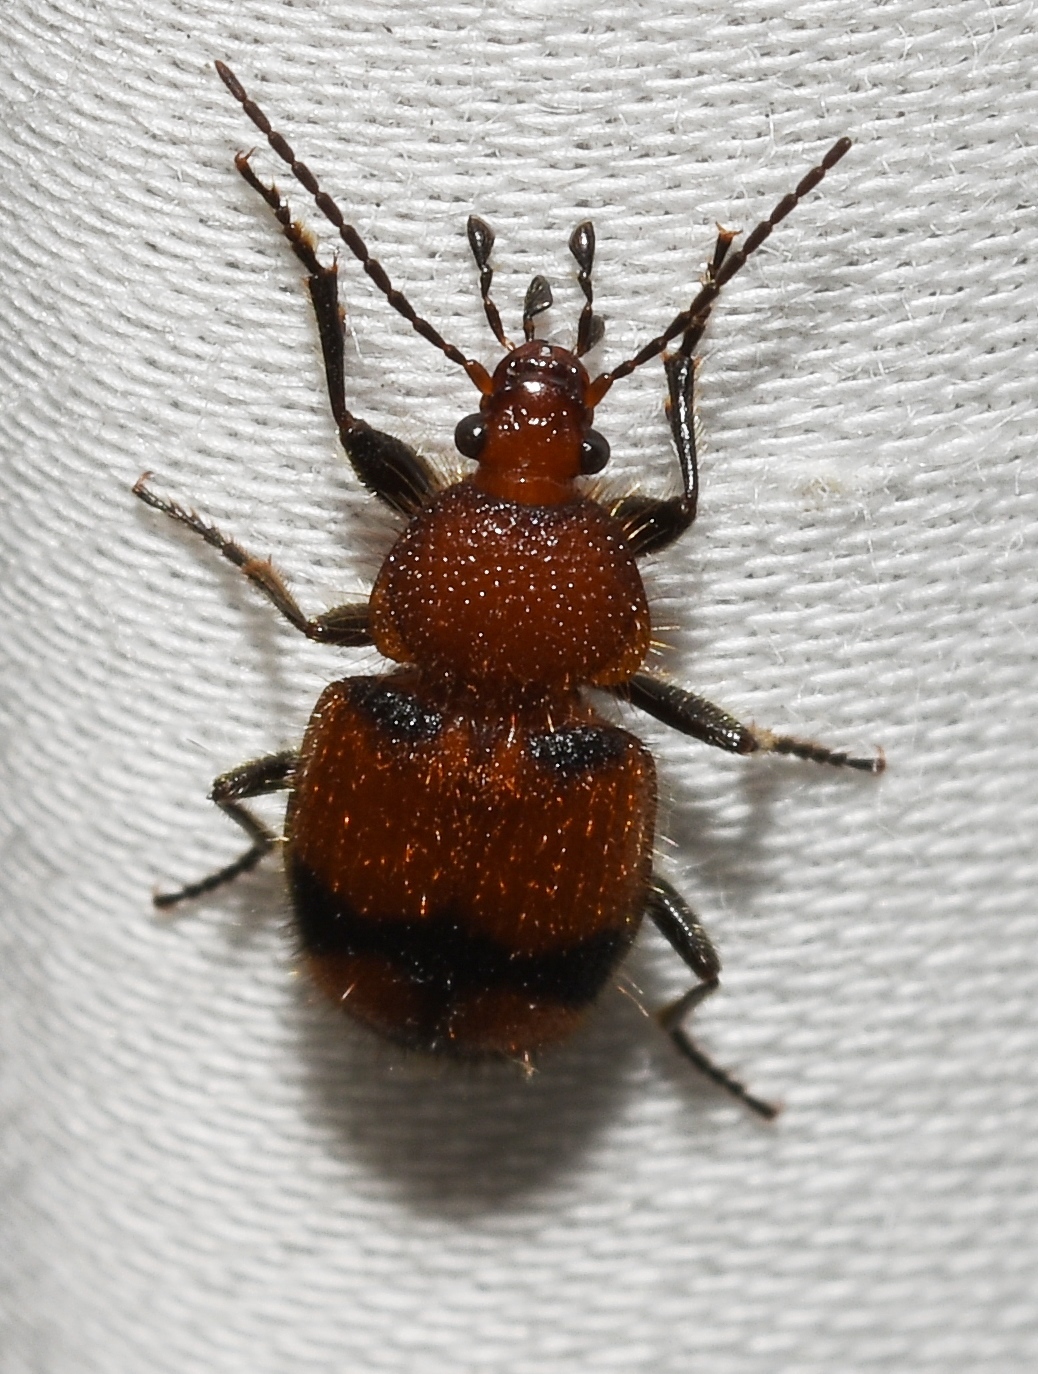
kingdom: Animalia
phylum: Arthropoda
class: Insecta
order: Coleoptera
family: Carabidae
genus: Panagaeus
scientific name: Panagaeus fasciatus
